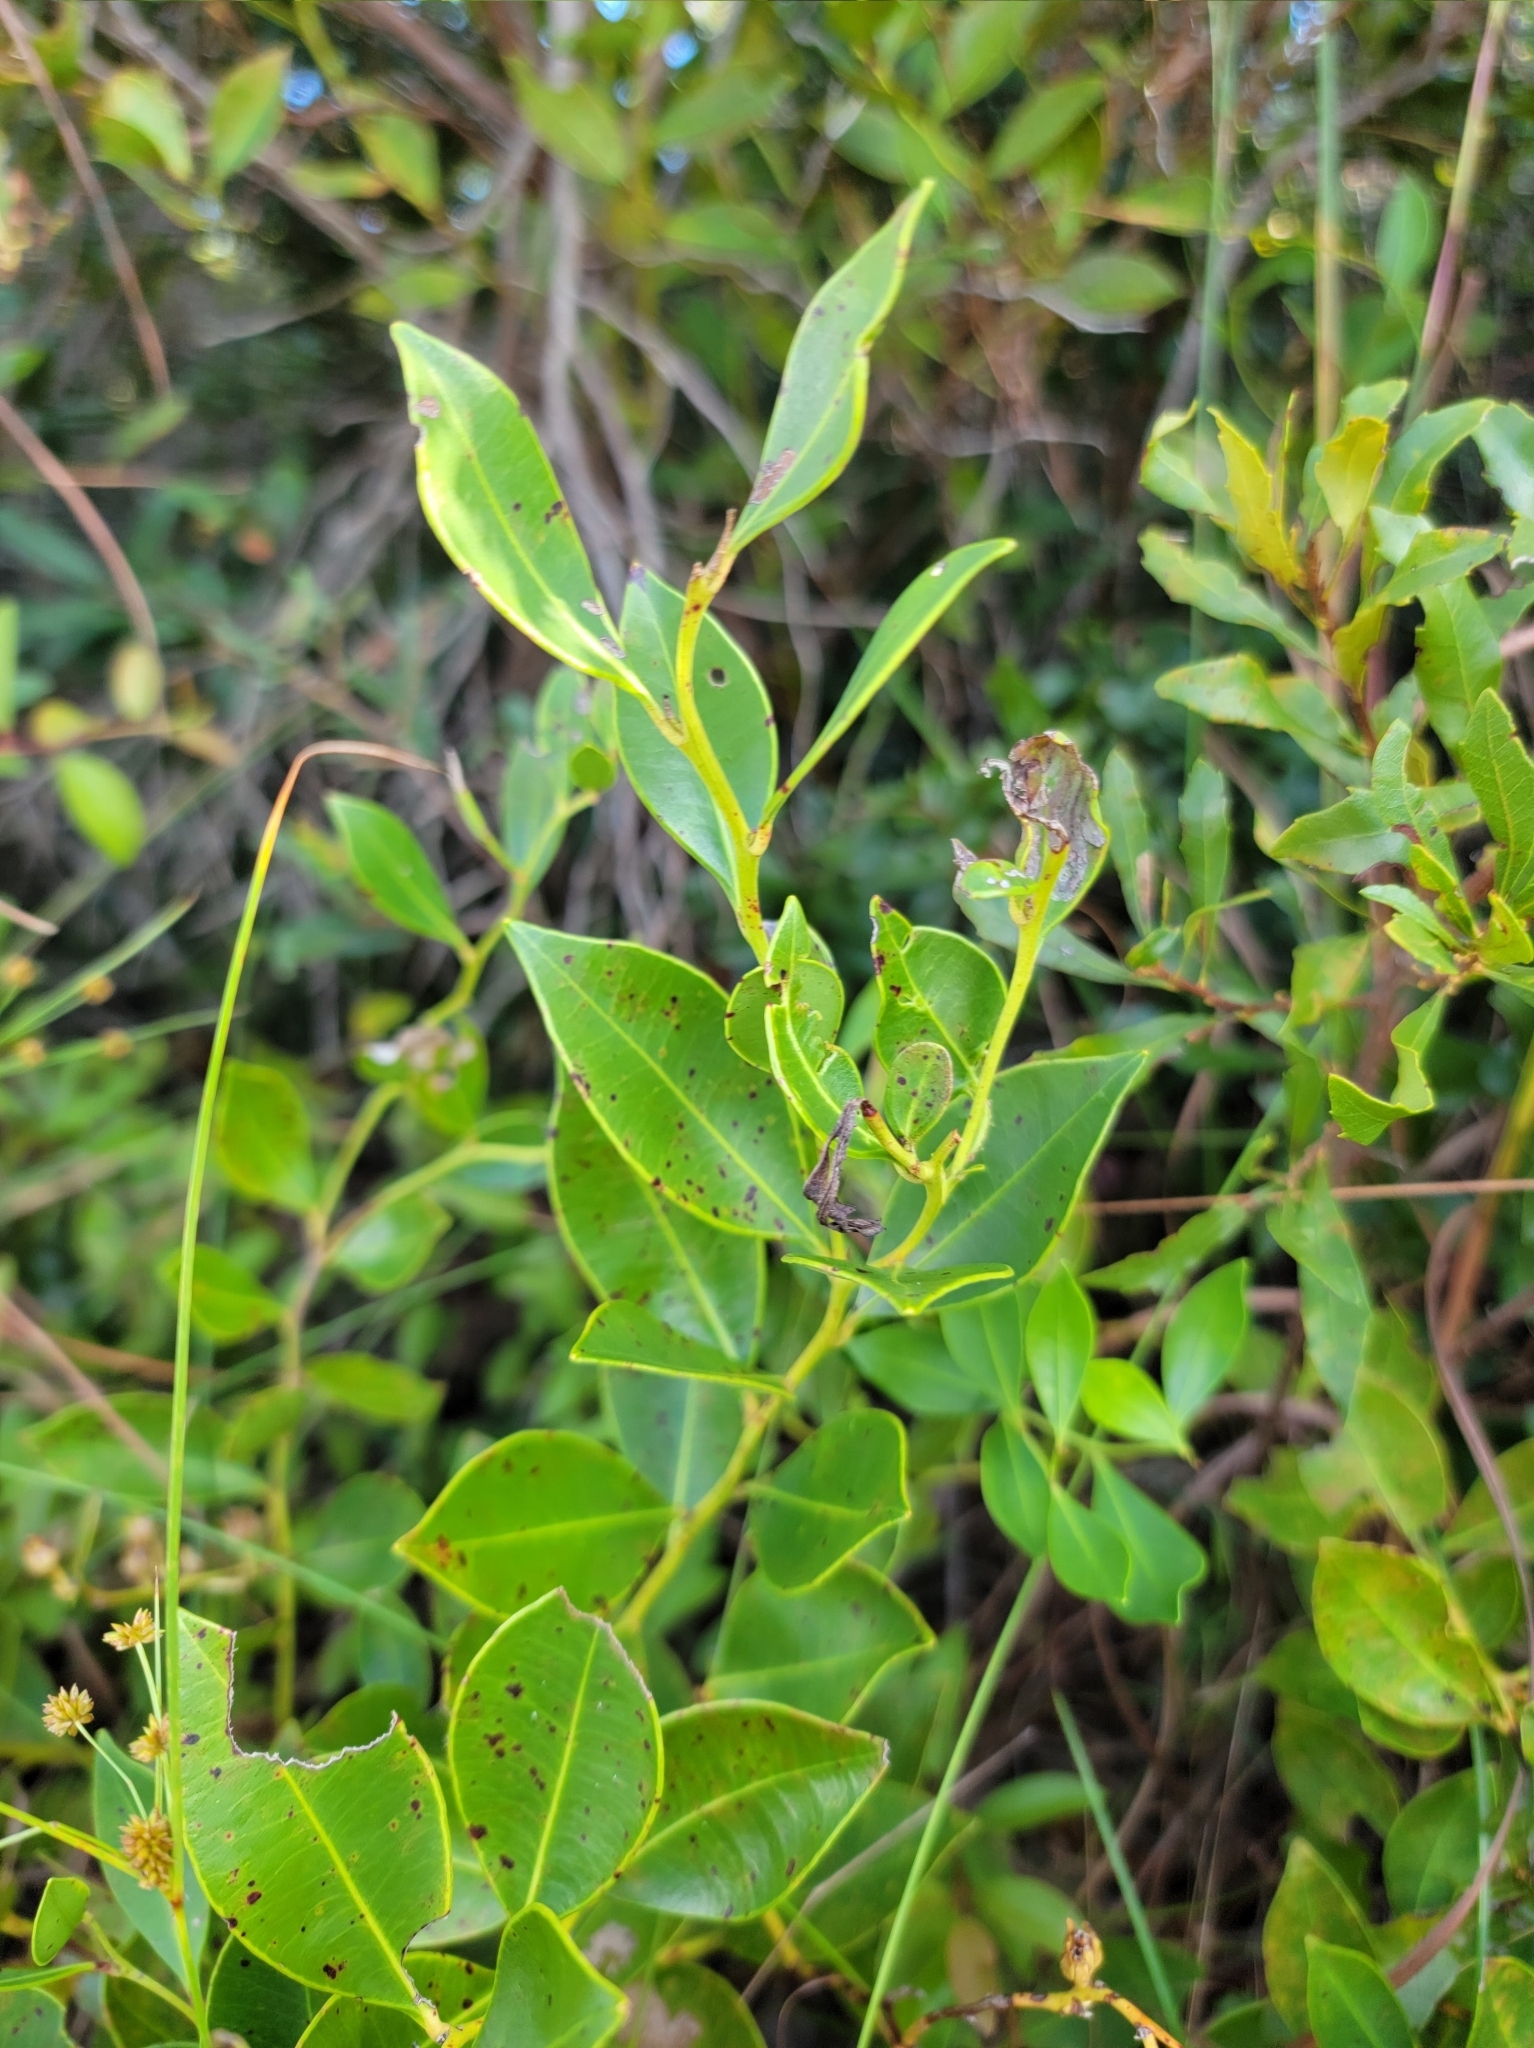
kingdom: Plantae
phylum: Tracheophyta
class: Magnoliopsida
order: Ericales
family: Ericaceae
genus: Lyonia
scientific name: Lyonia lucida
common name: Fetterbush
